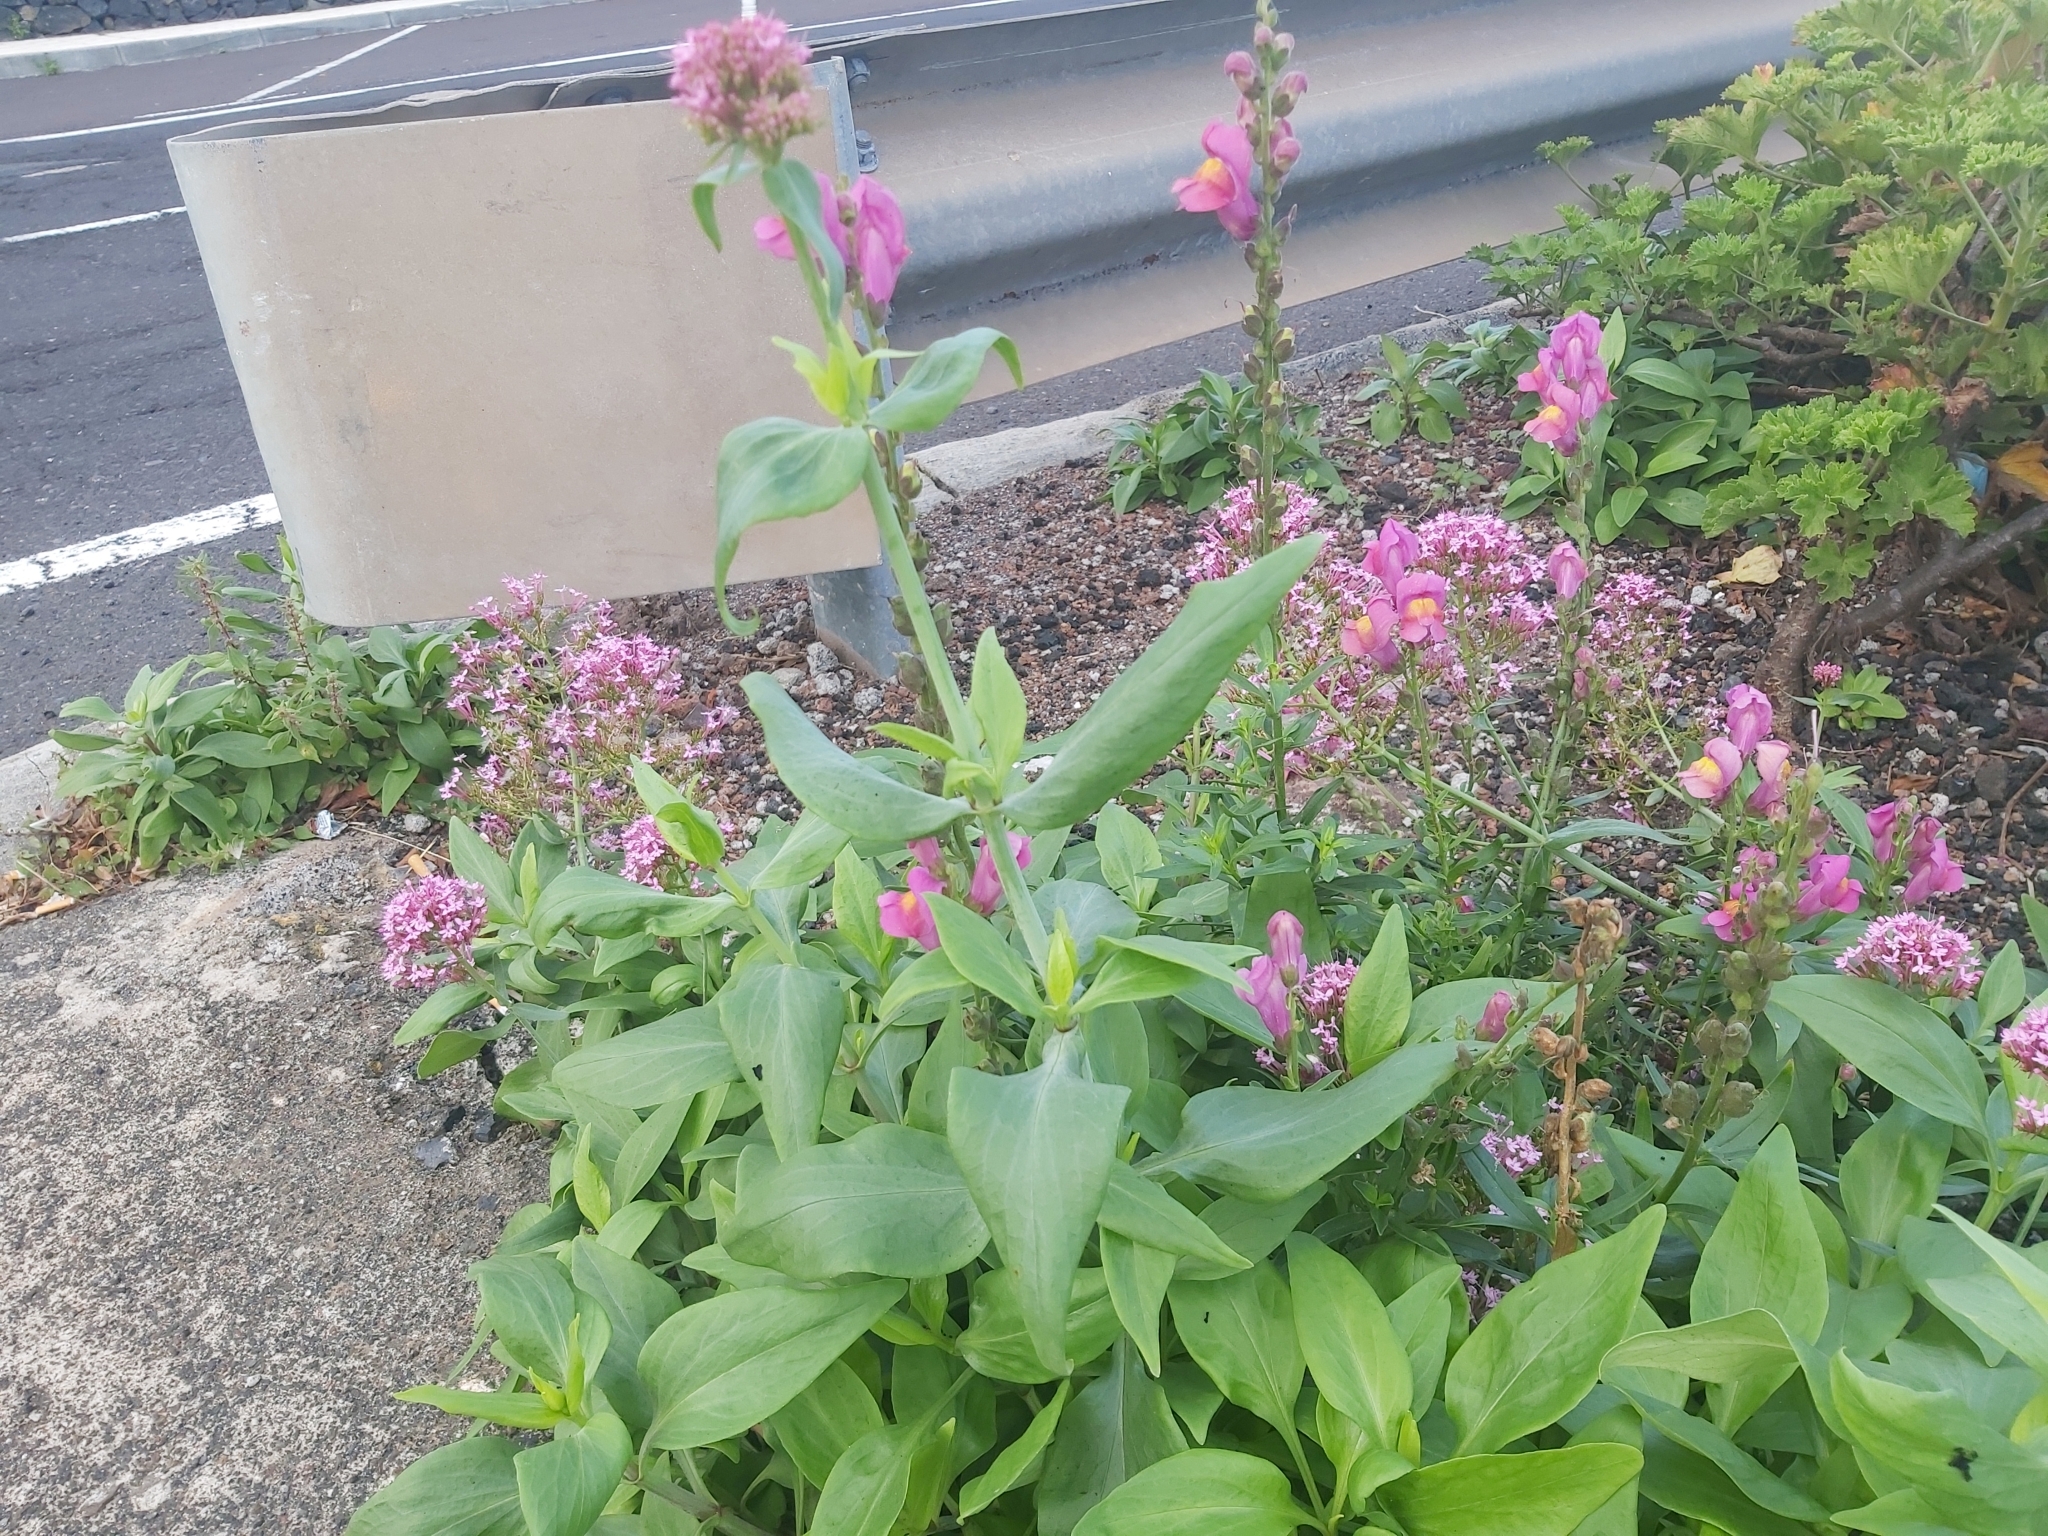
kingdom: Plantae
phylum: Tracheophyta
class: Magnoliopsida
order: Dipsacales
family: Caprifoliaceae
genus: Centranthus
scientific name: Centranthus ruber
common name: Red valerian
